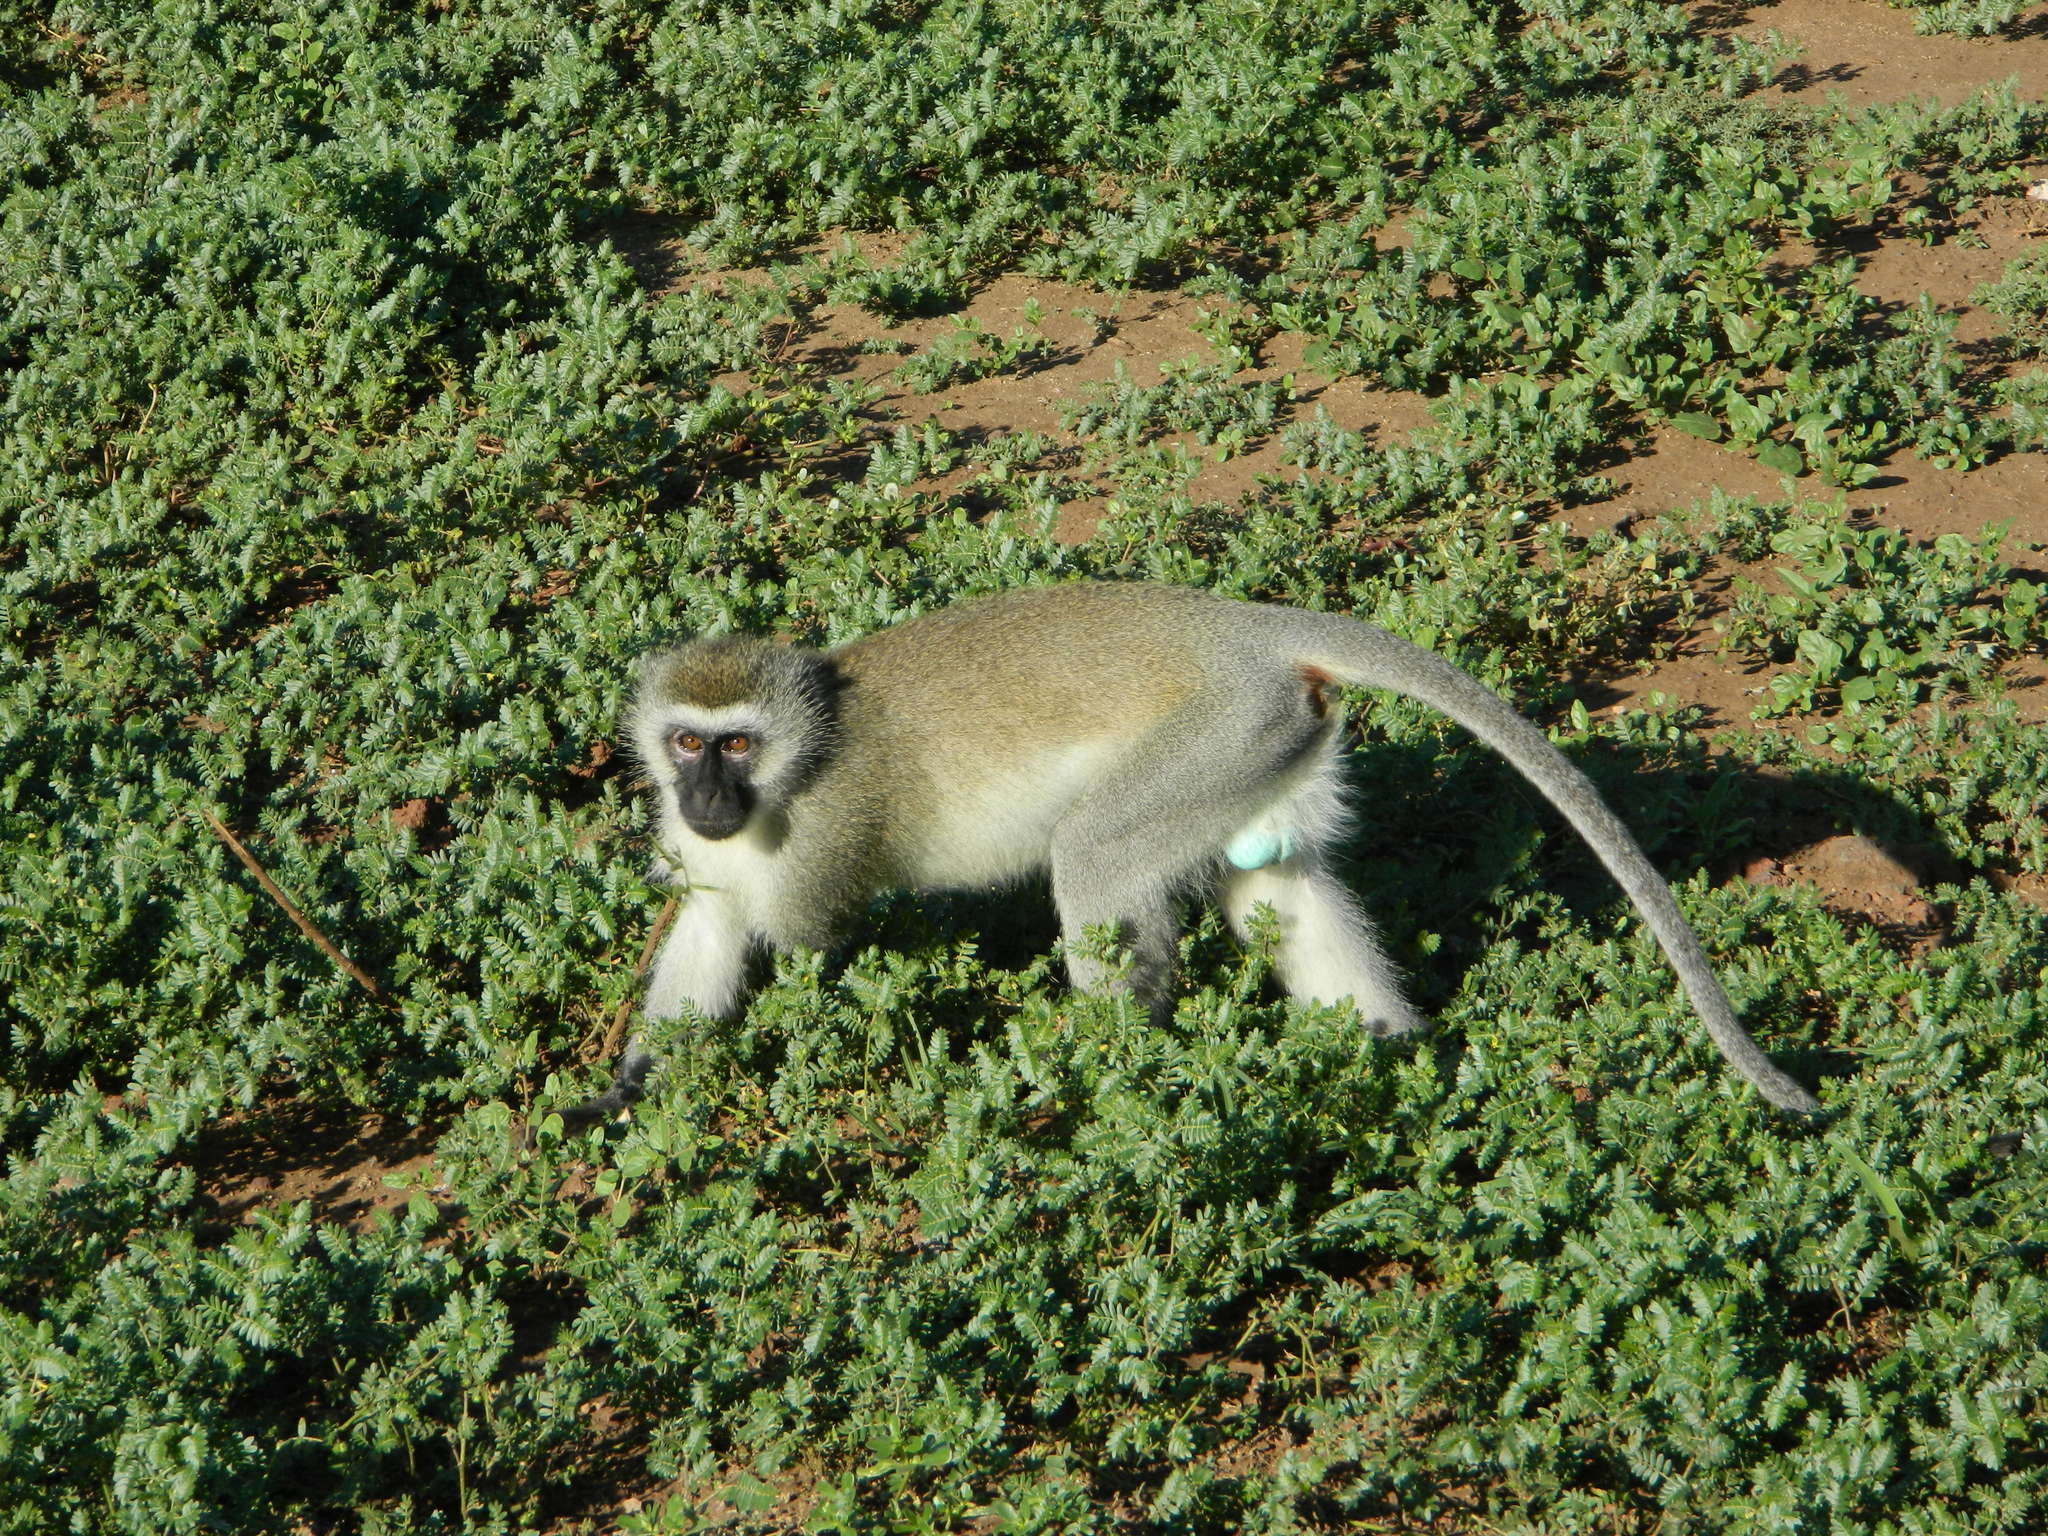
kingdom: Animalia
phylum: Chordata
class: Mammalia
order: Primates
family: Cercopithecidae
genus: Chlorocebus
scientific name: Chlorocebus pygerythrus
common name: Vervet monkey
